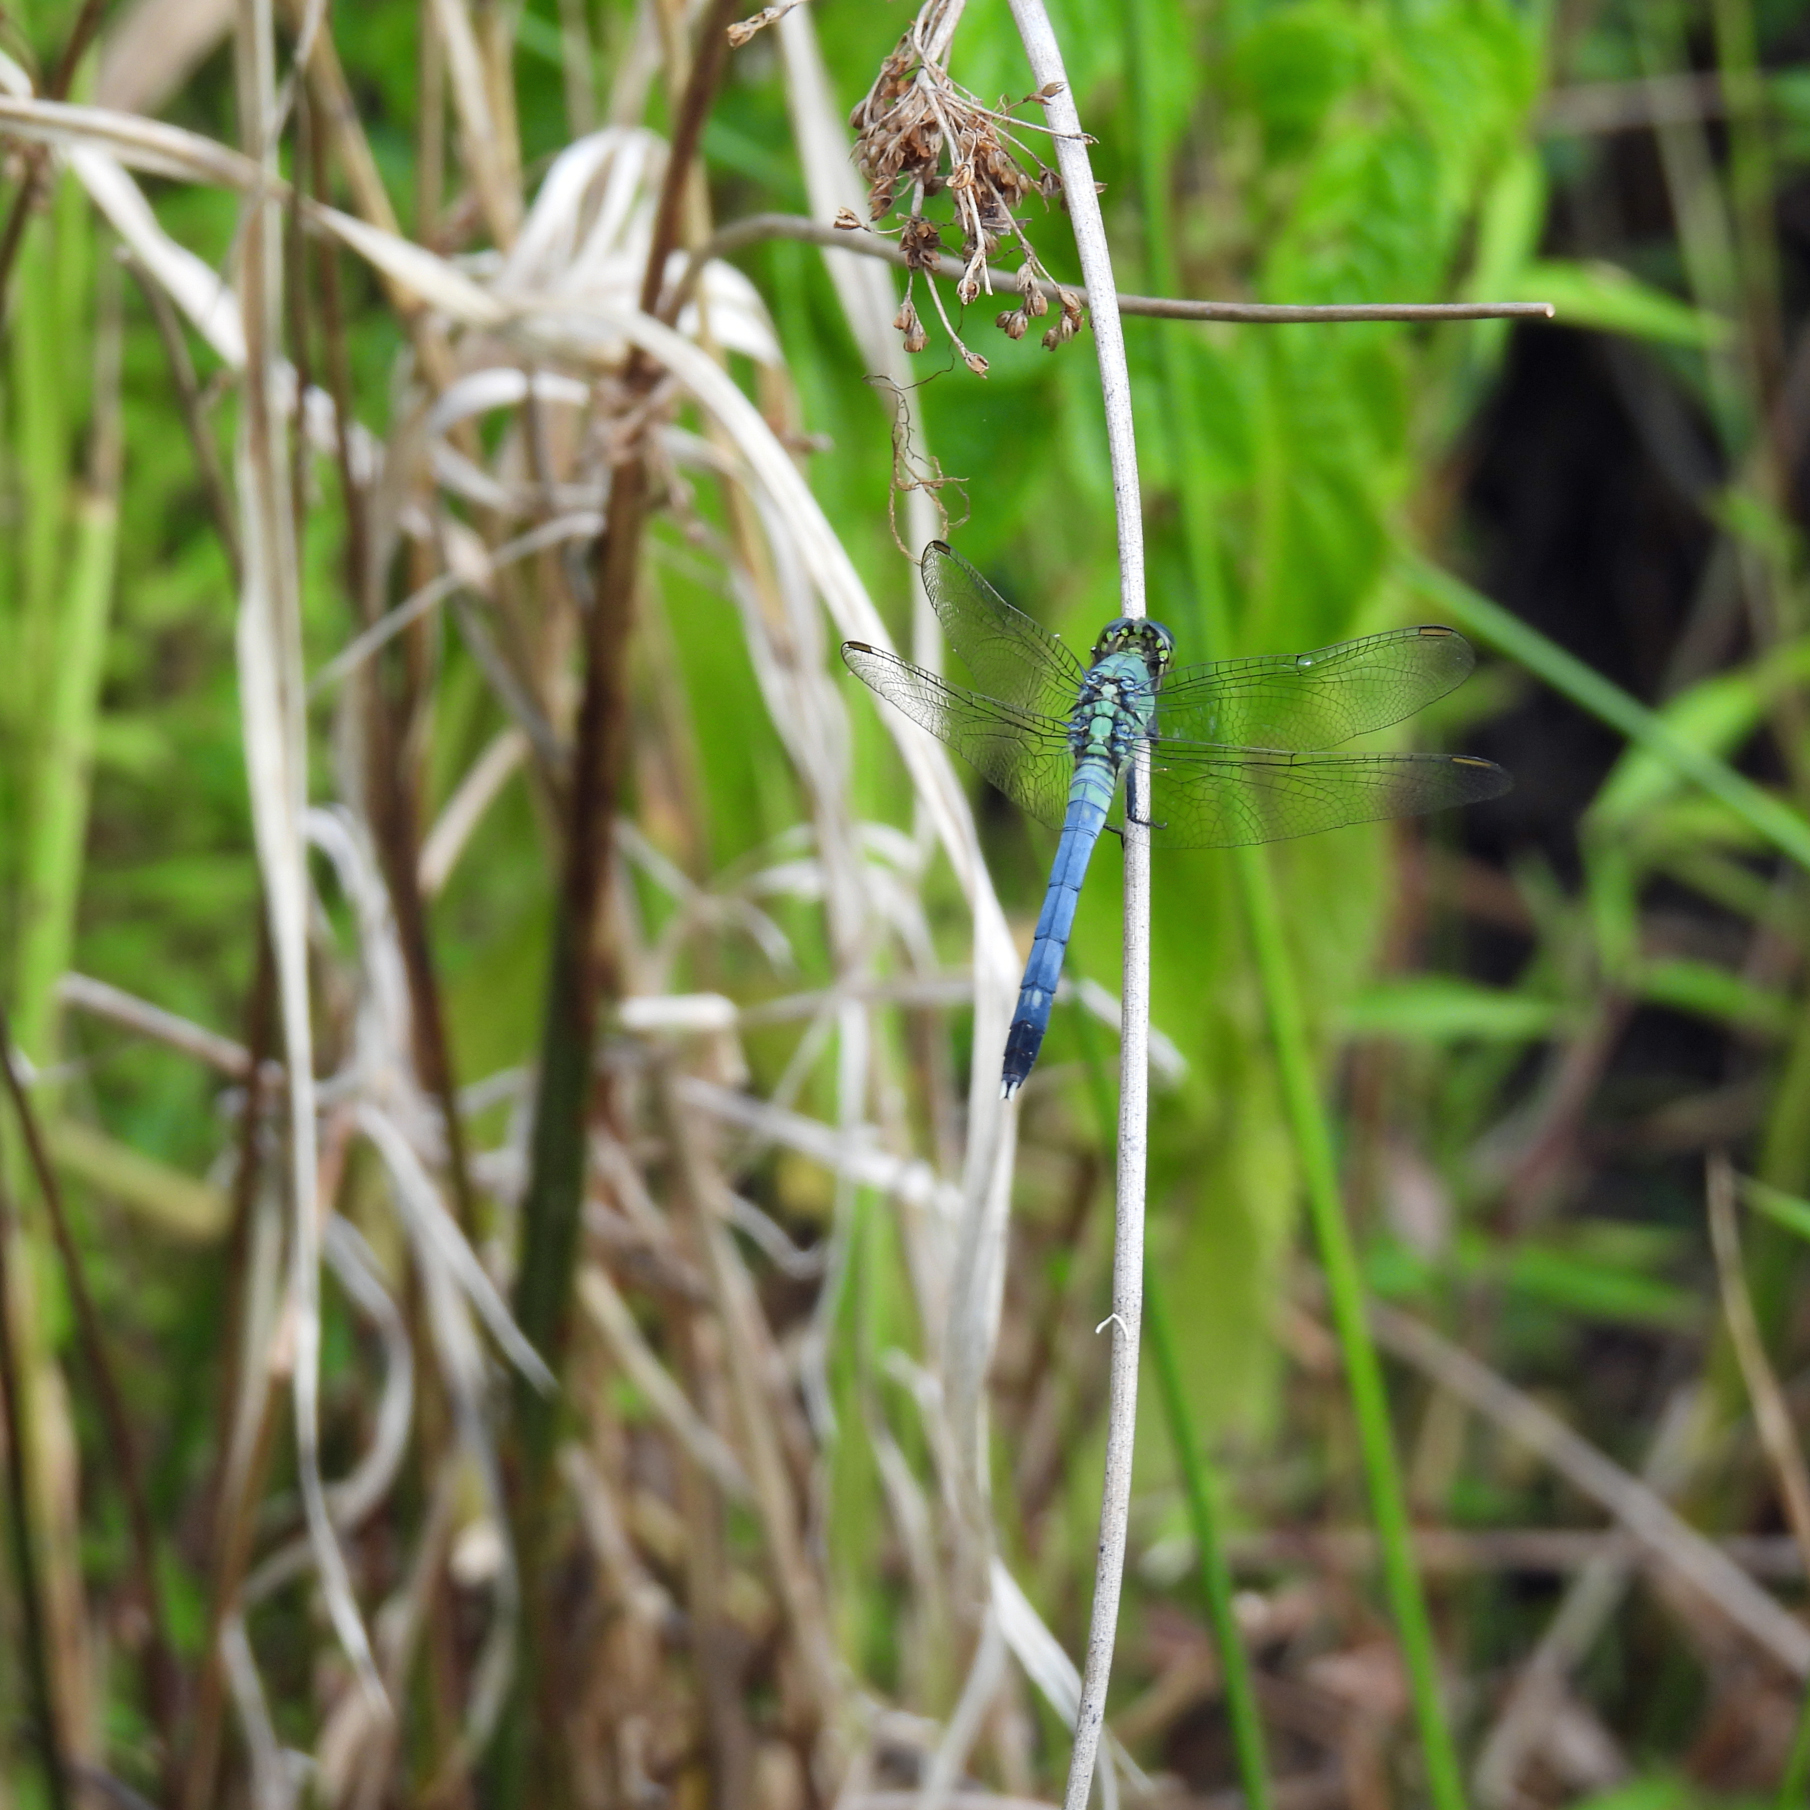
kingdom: Animalia
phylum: Arthropoda
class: Insecta
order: Odonata
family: Libellulidae
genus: Erythemis
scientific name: Erythemis simplicicollis
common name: Eastern pondhawk
